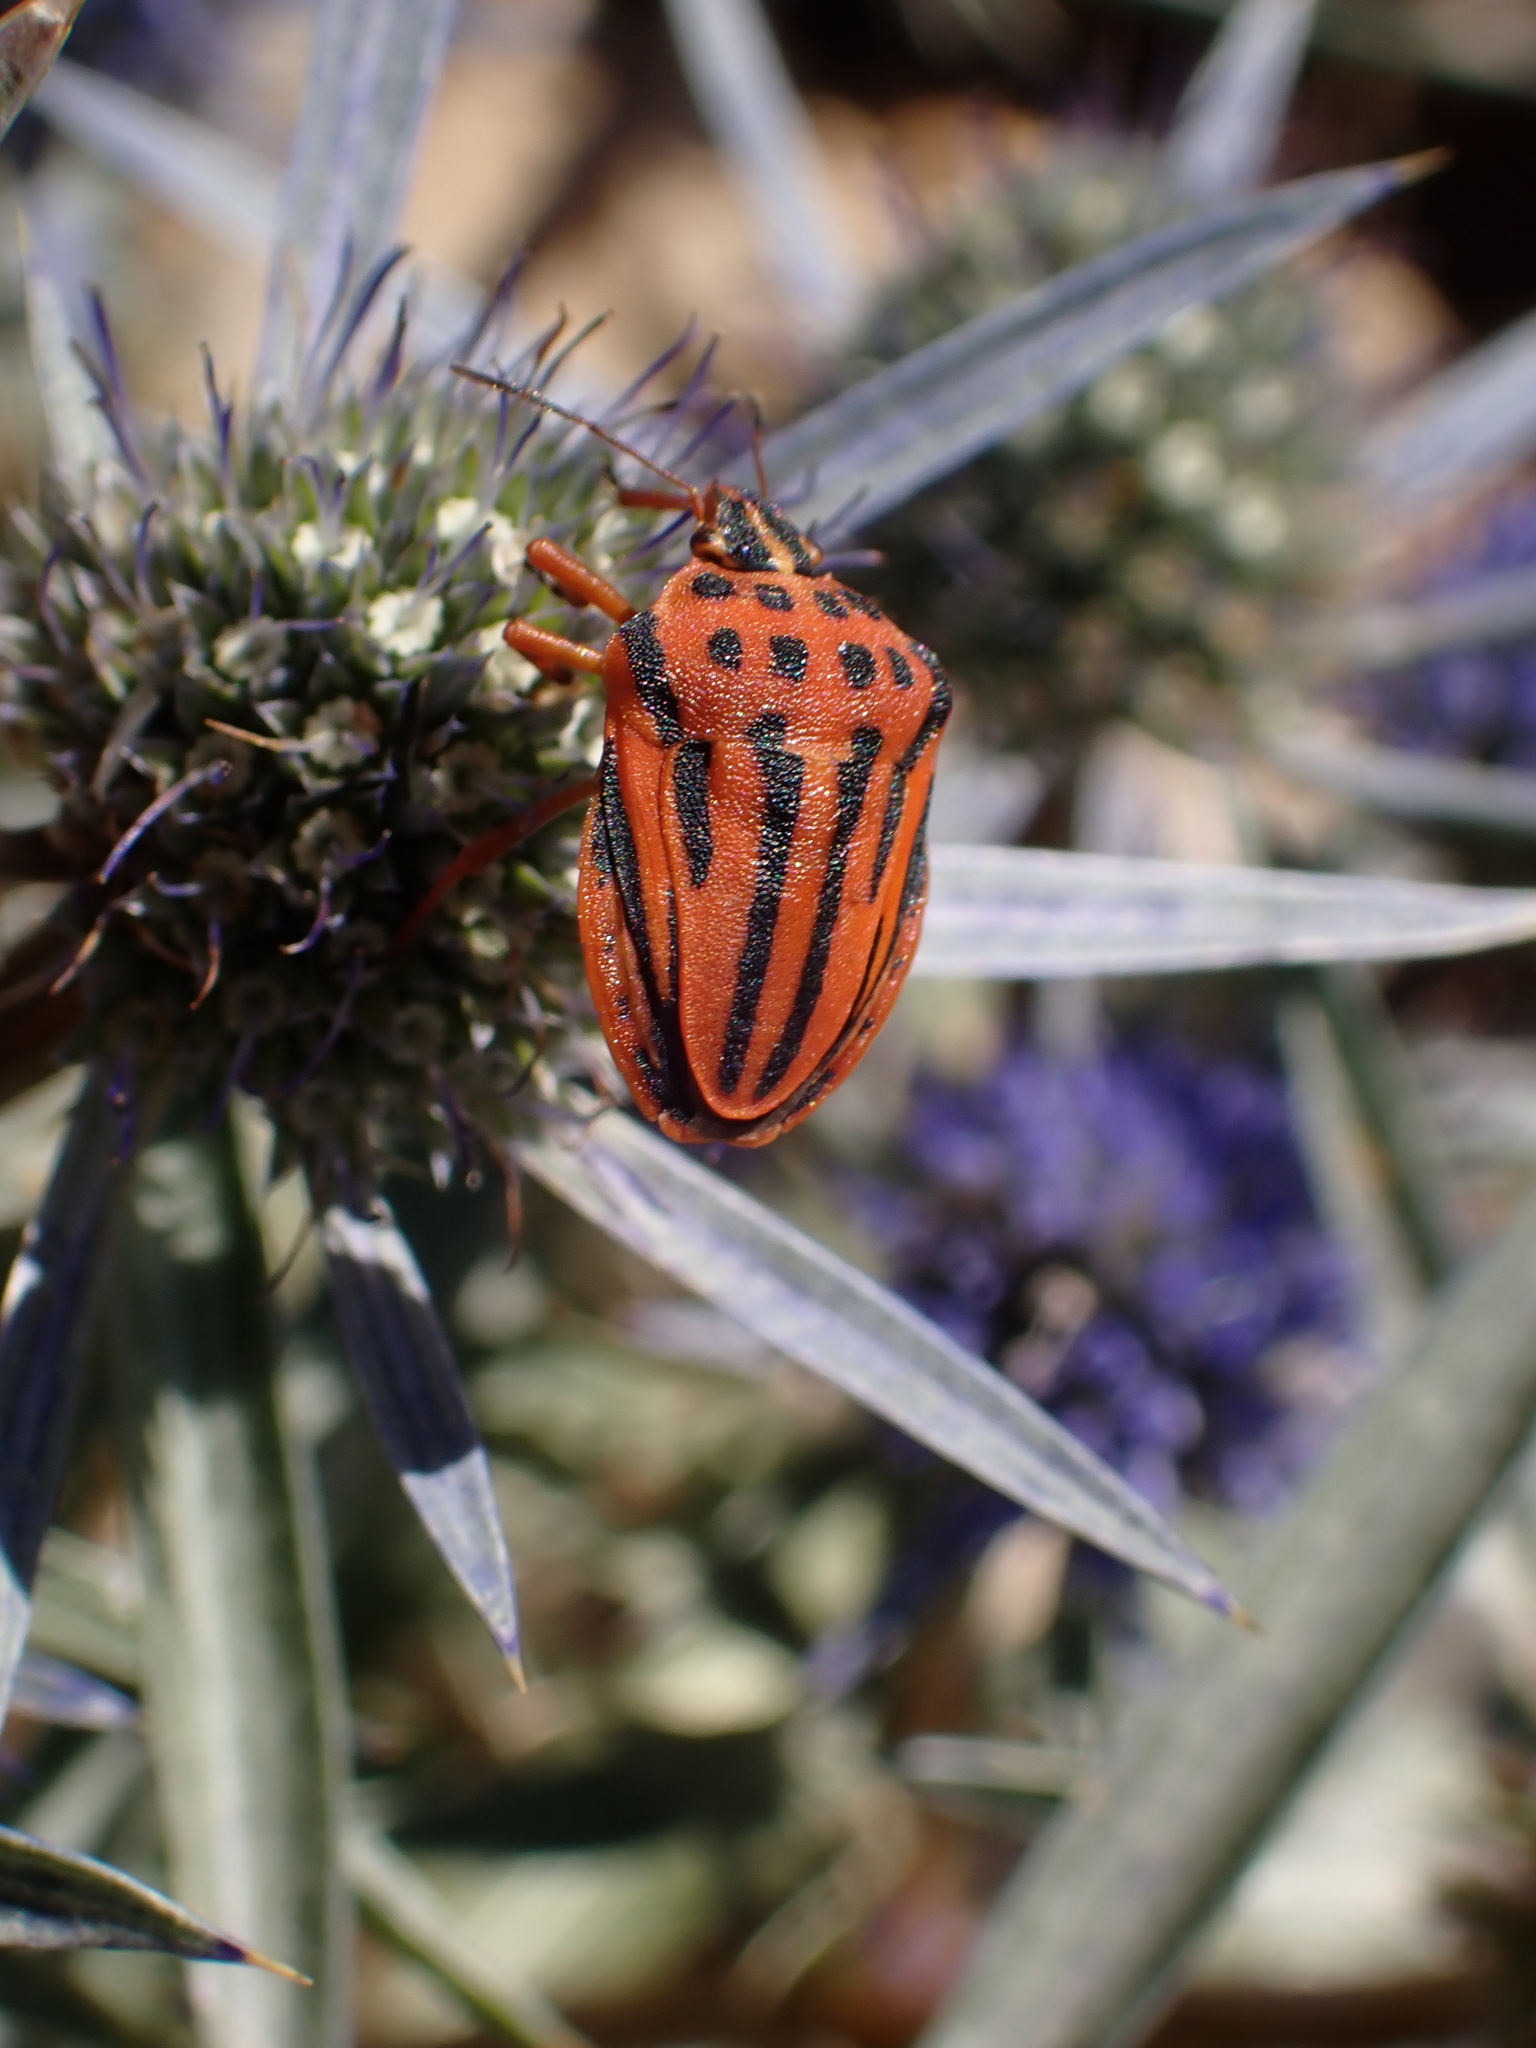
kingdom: Animalia
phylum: Arthropoda
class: Insecta
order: Hemiptera
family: Pentatomidae
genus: Graphosoma
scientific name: Graphosoma semipunctatum
